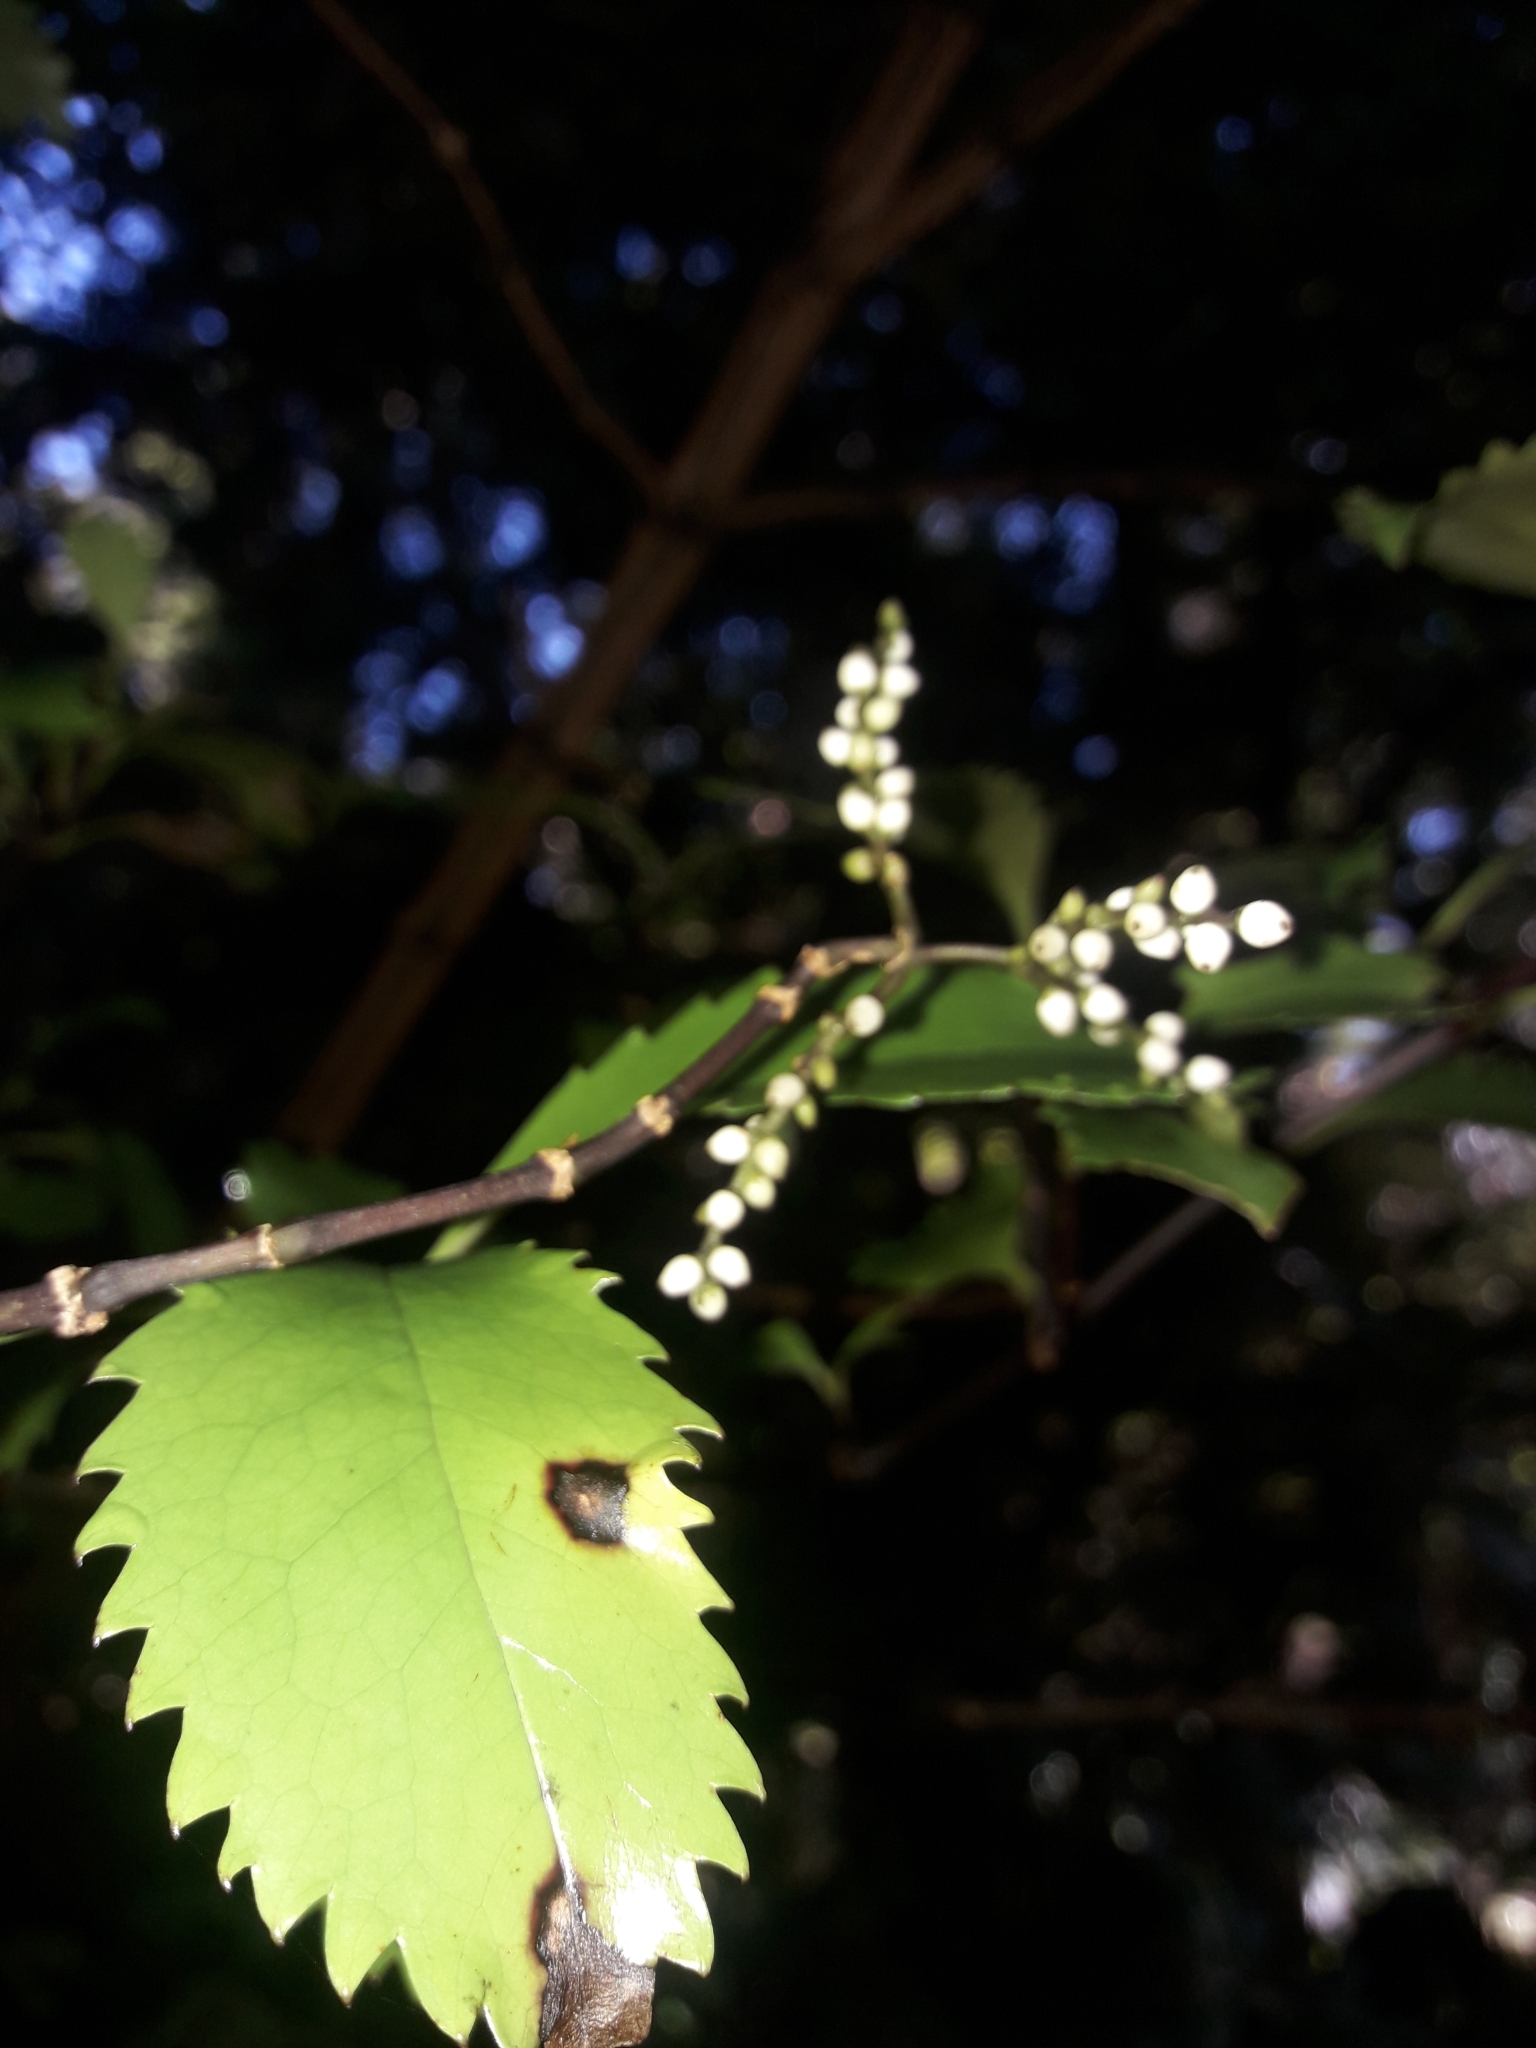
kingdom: Plantae
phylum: Tracheophyta
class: Magnoliopsida
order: Chloranthales
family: Chloranthaceae
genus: Ascarina
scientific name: Ascarina lucida
